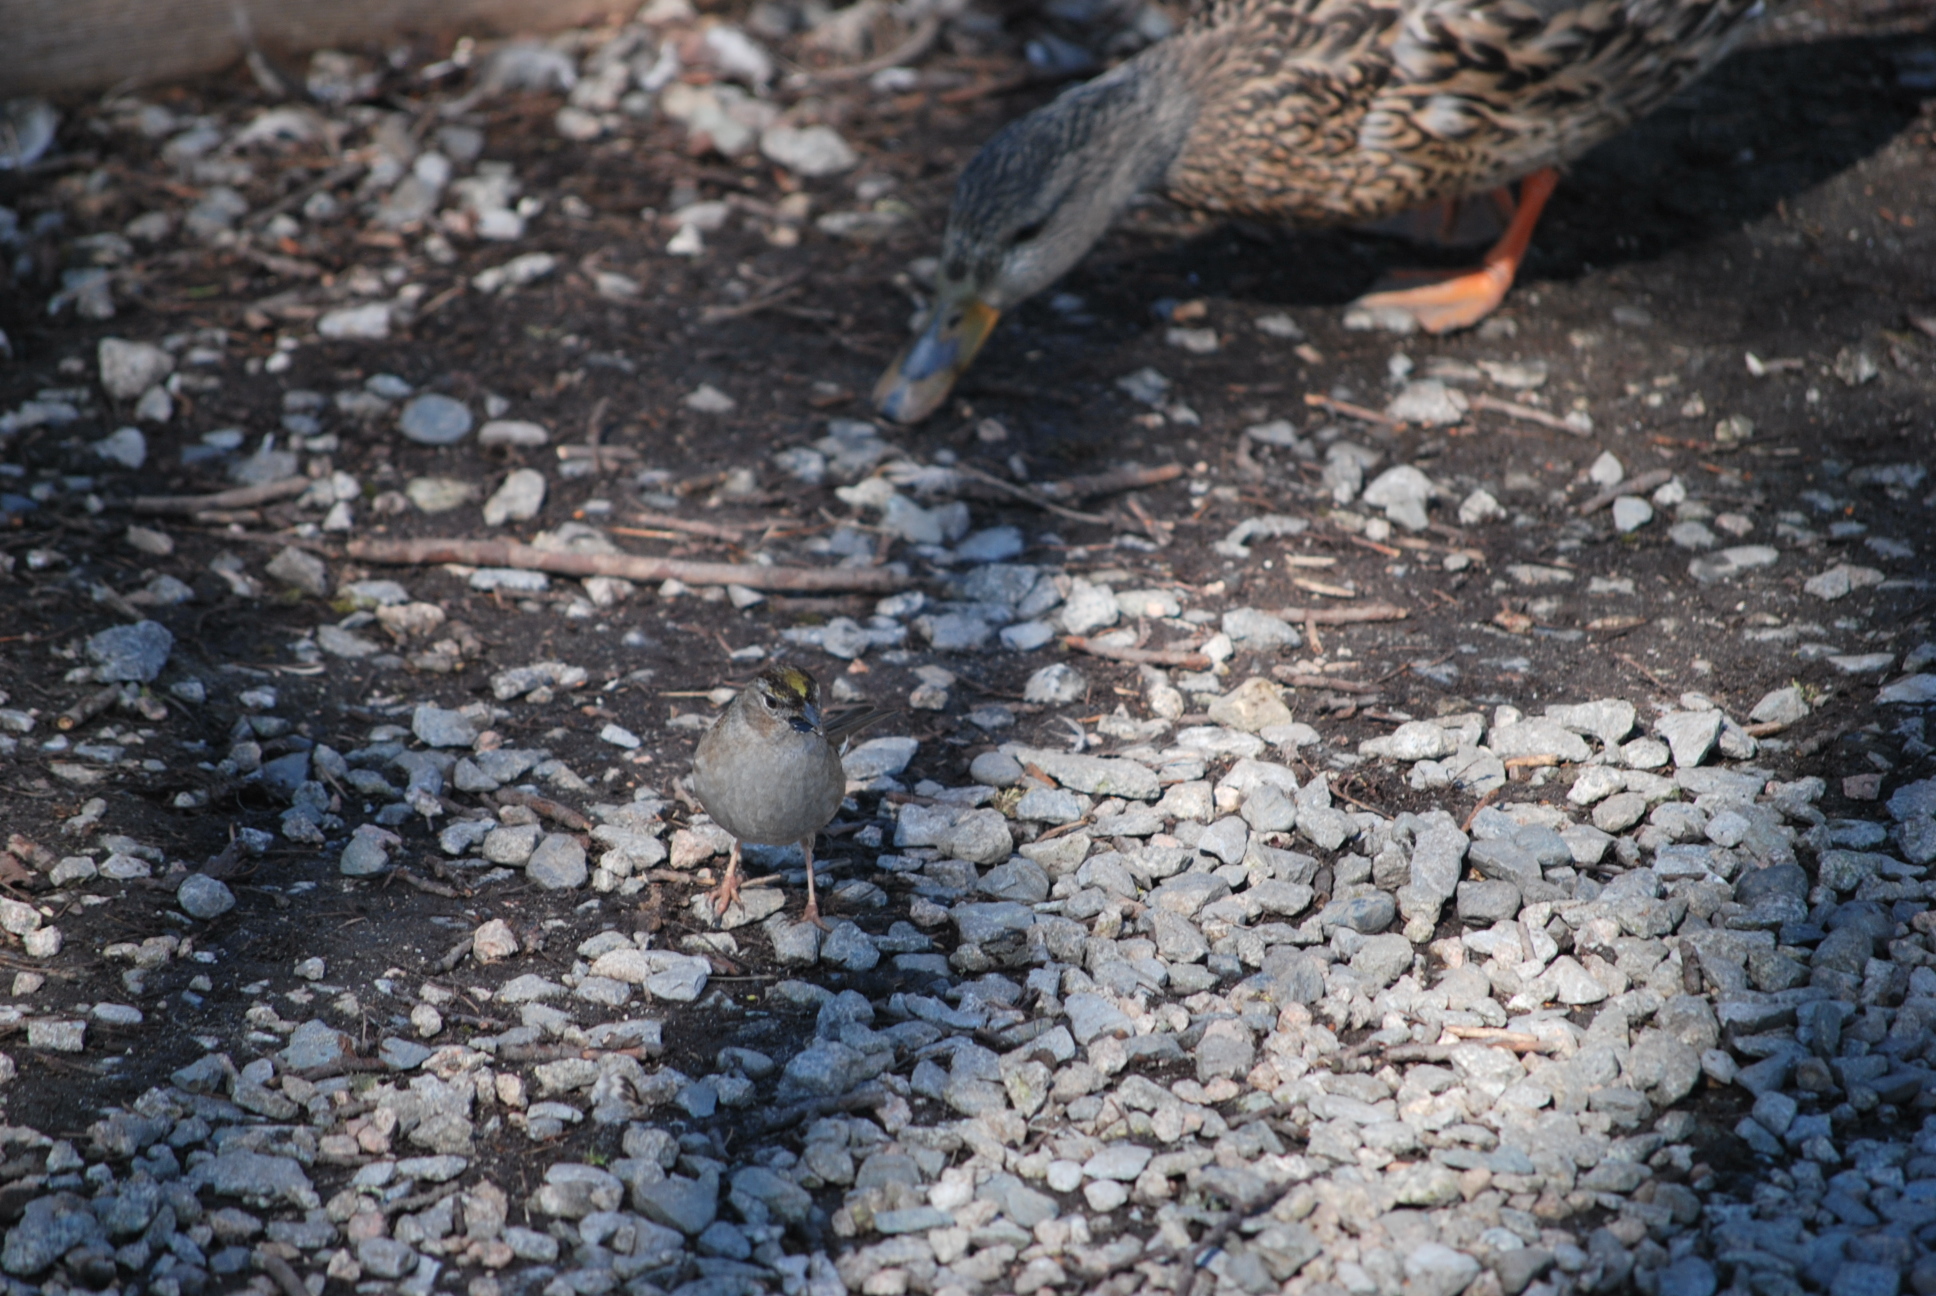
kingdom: Animalia
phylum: Chordata
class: Aves
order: Passeriformes
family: Passerellidae
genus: Zonotrichia
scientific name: Zonotrichia atricapilla
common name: Golden-crowned sparrow
